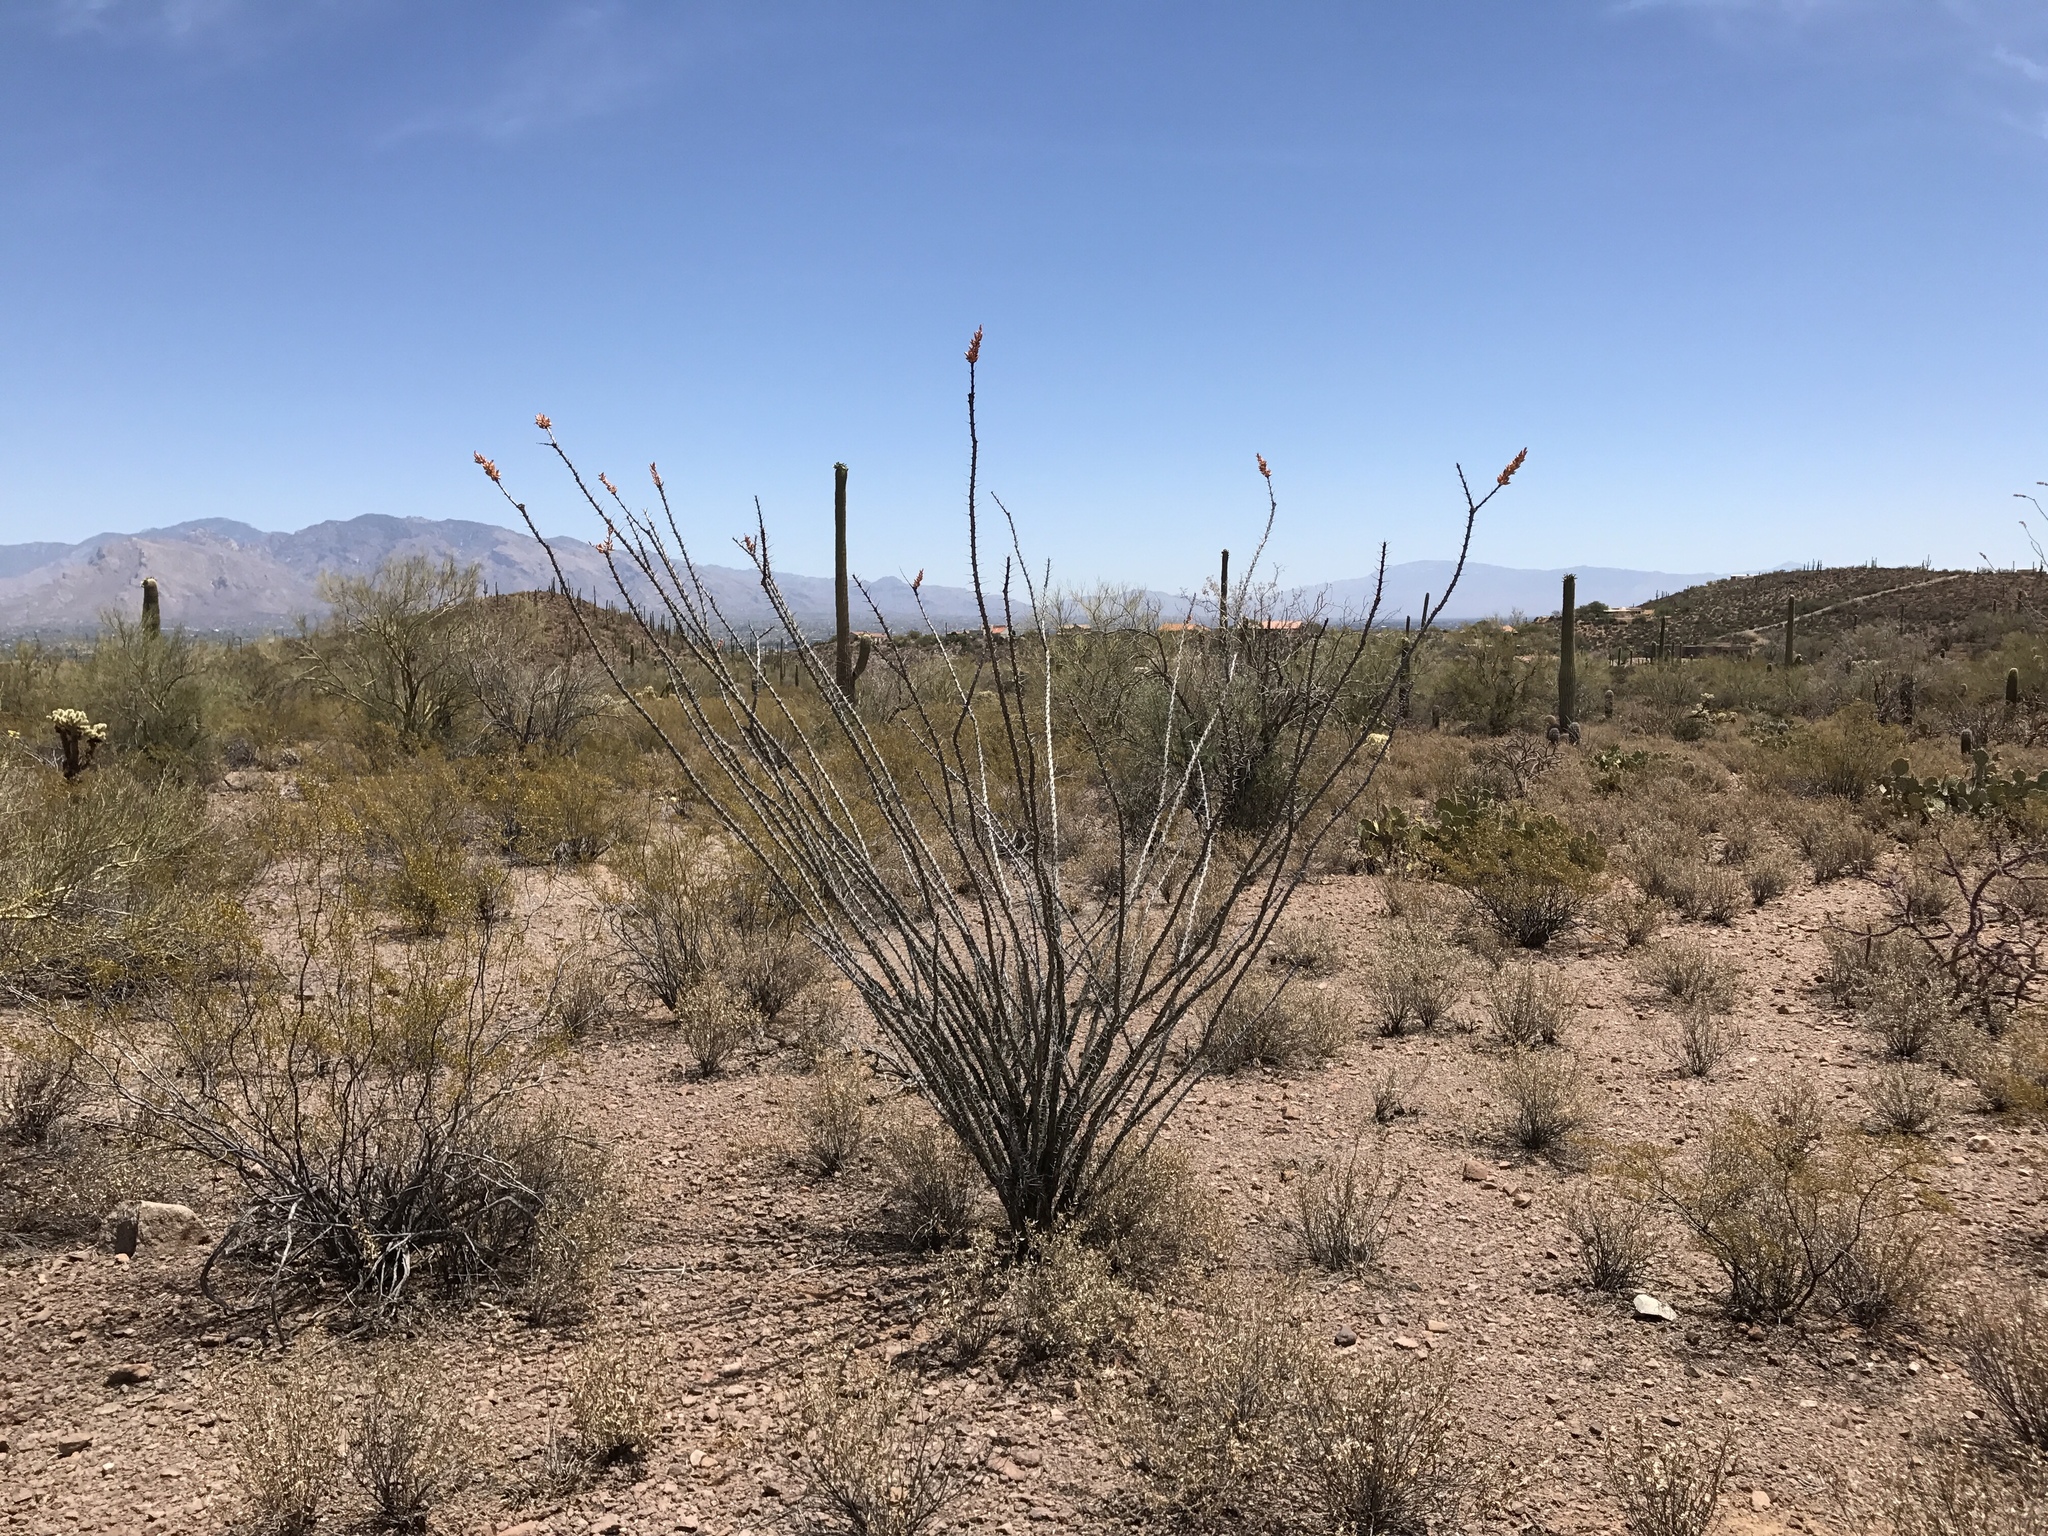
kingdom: Plantae
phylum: Tracheophyta
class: Magnoliopsida
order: Ericales
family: Fouquieriaceae
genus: Fouquieria
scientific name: Fouquieria splendens
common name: Vine-cactus
